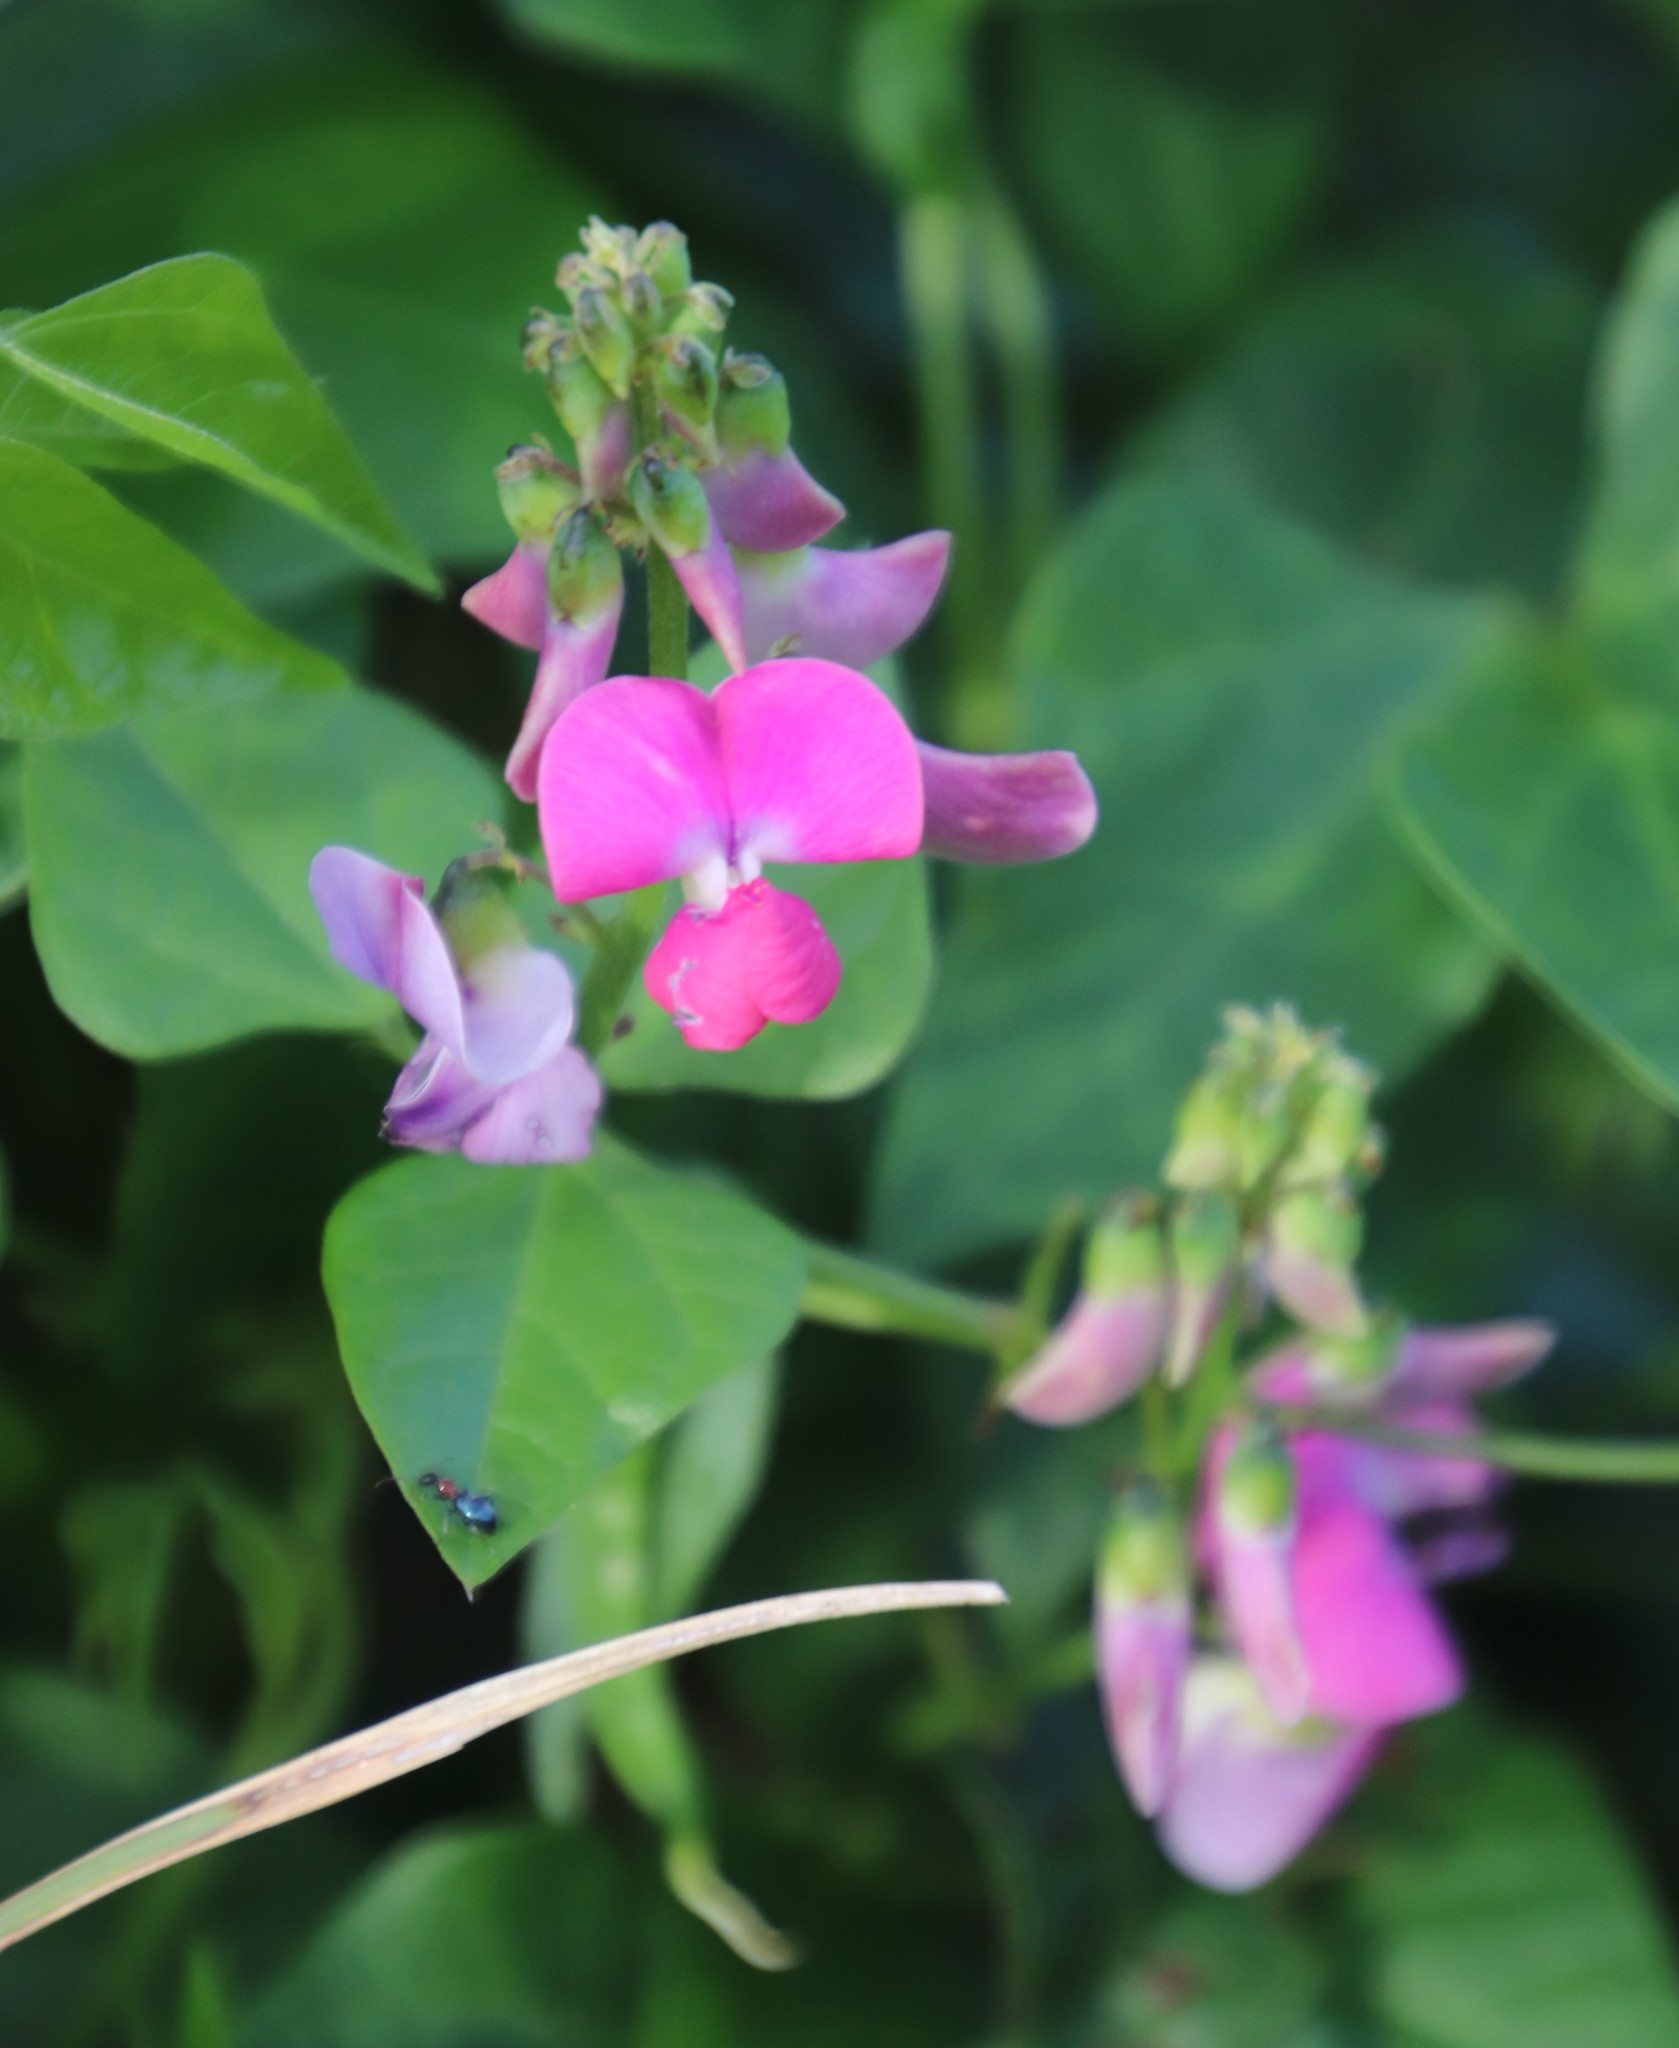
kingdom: Plantae
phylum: Tracheophyta
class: Magnoliopsida
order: Fabales
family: Fabaceae
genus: Dipogon
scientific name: Dipogon lignosus
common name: Okie bean
